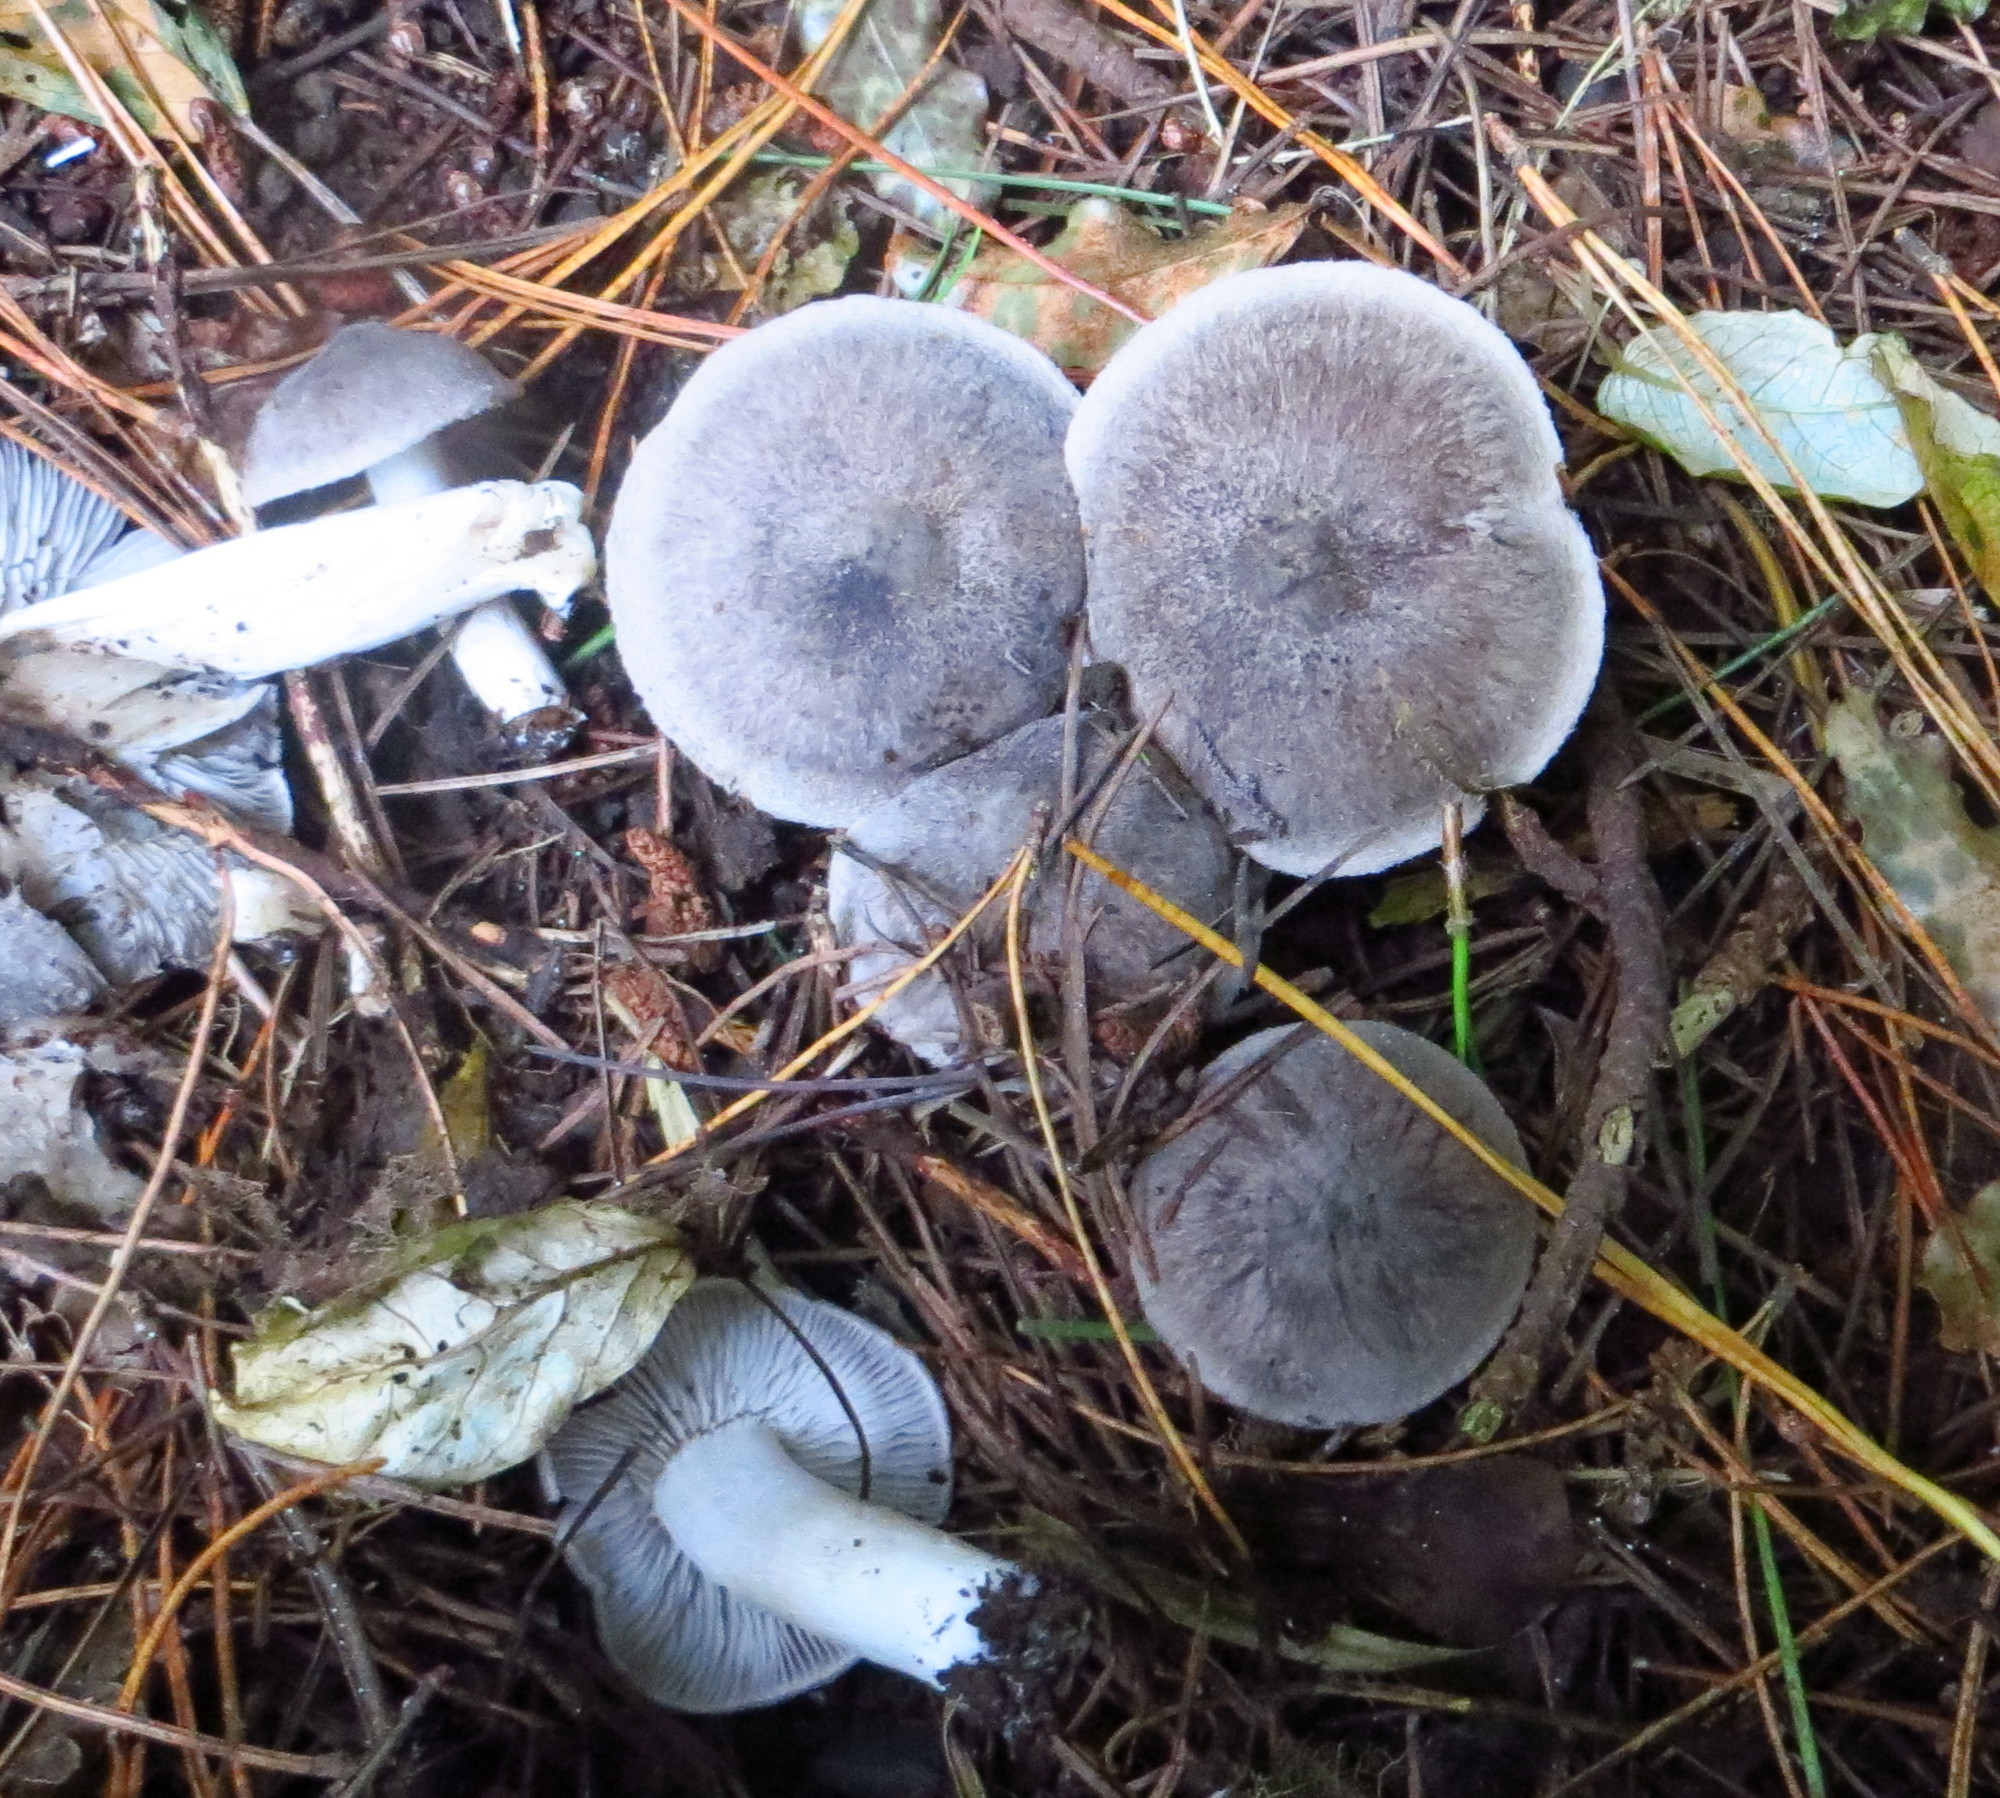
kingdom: Fungi
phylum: Basidiomycota
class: Agaricomycetes
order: Agaricales
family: Tricholomataceae
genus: Tricholoma
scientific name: Tricholoma terreum
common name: Grey knight
